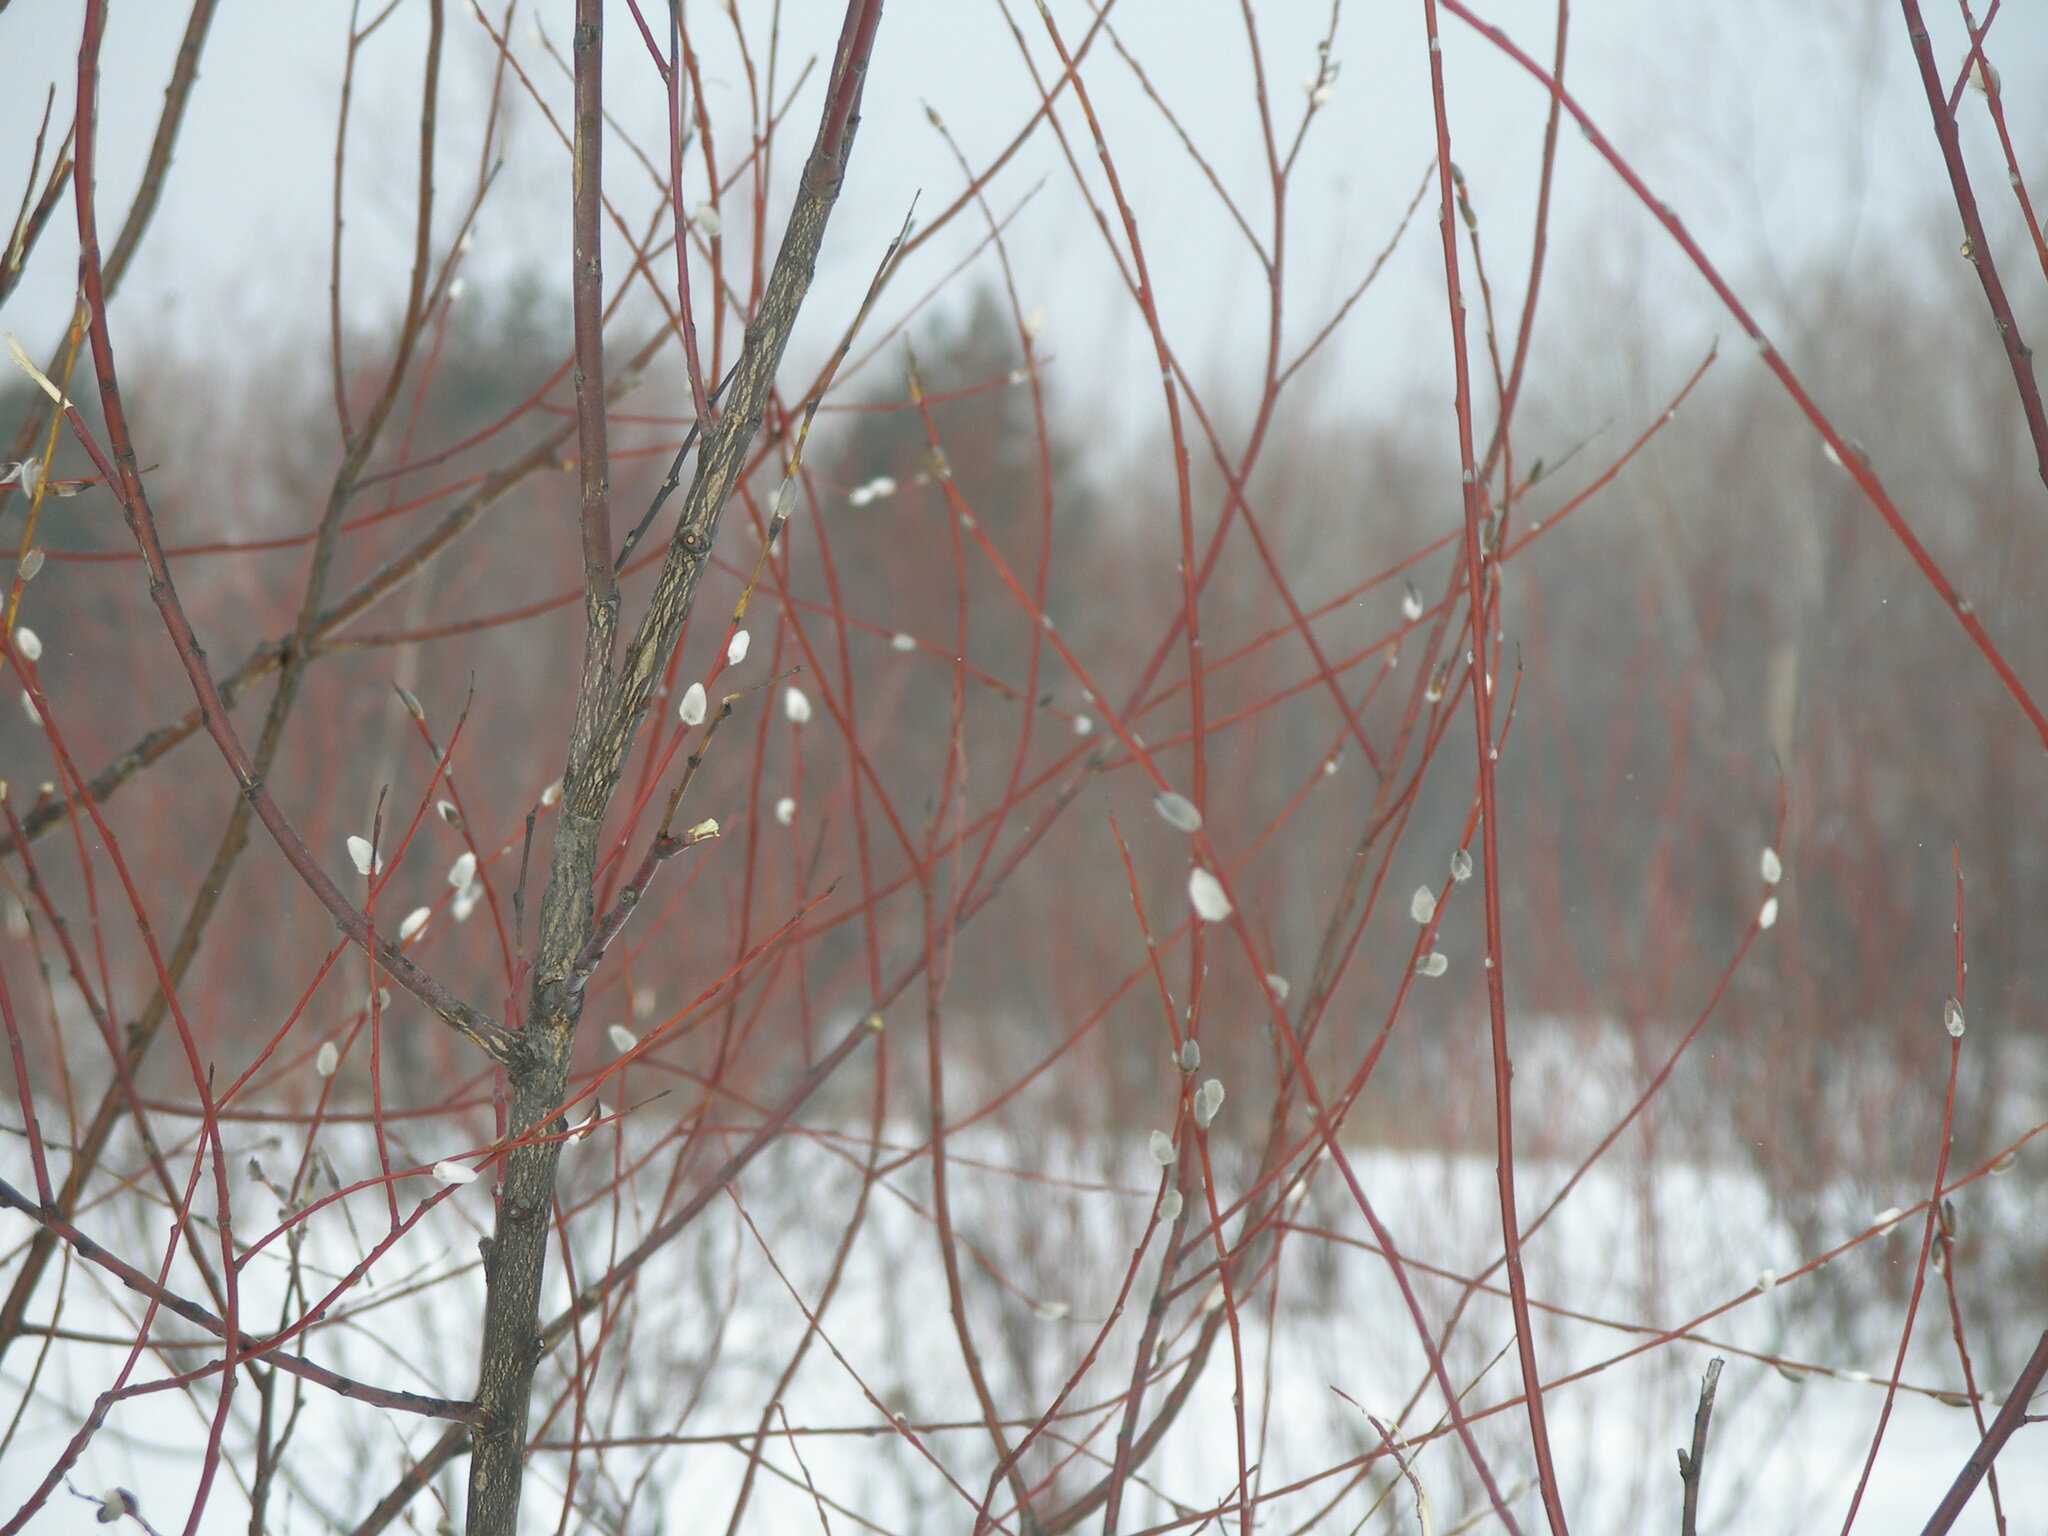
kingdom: Plantae
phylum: Tracheophyta
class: Magnoliopsida
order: Malpighiales
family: Salicaceae
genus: Salix
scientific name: Salix acutifolia
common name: Siberian violet-willow
